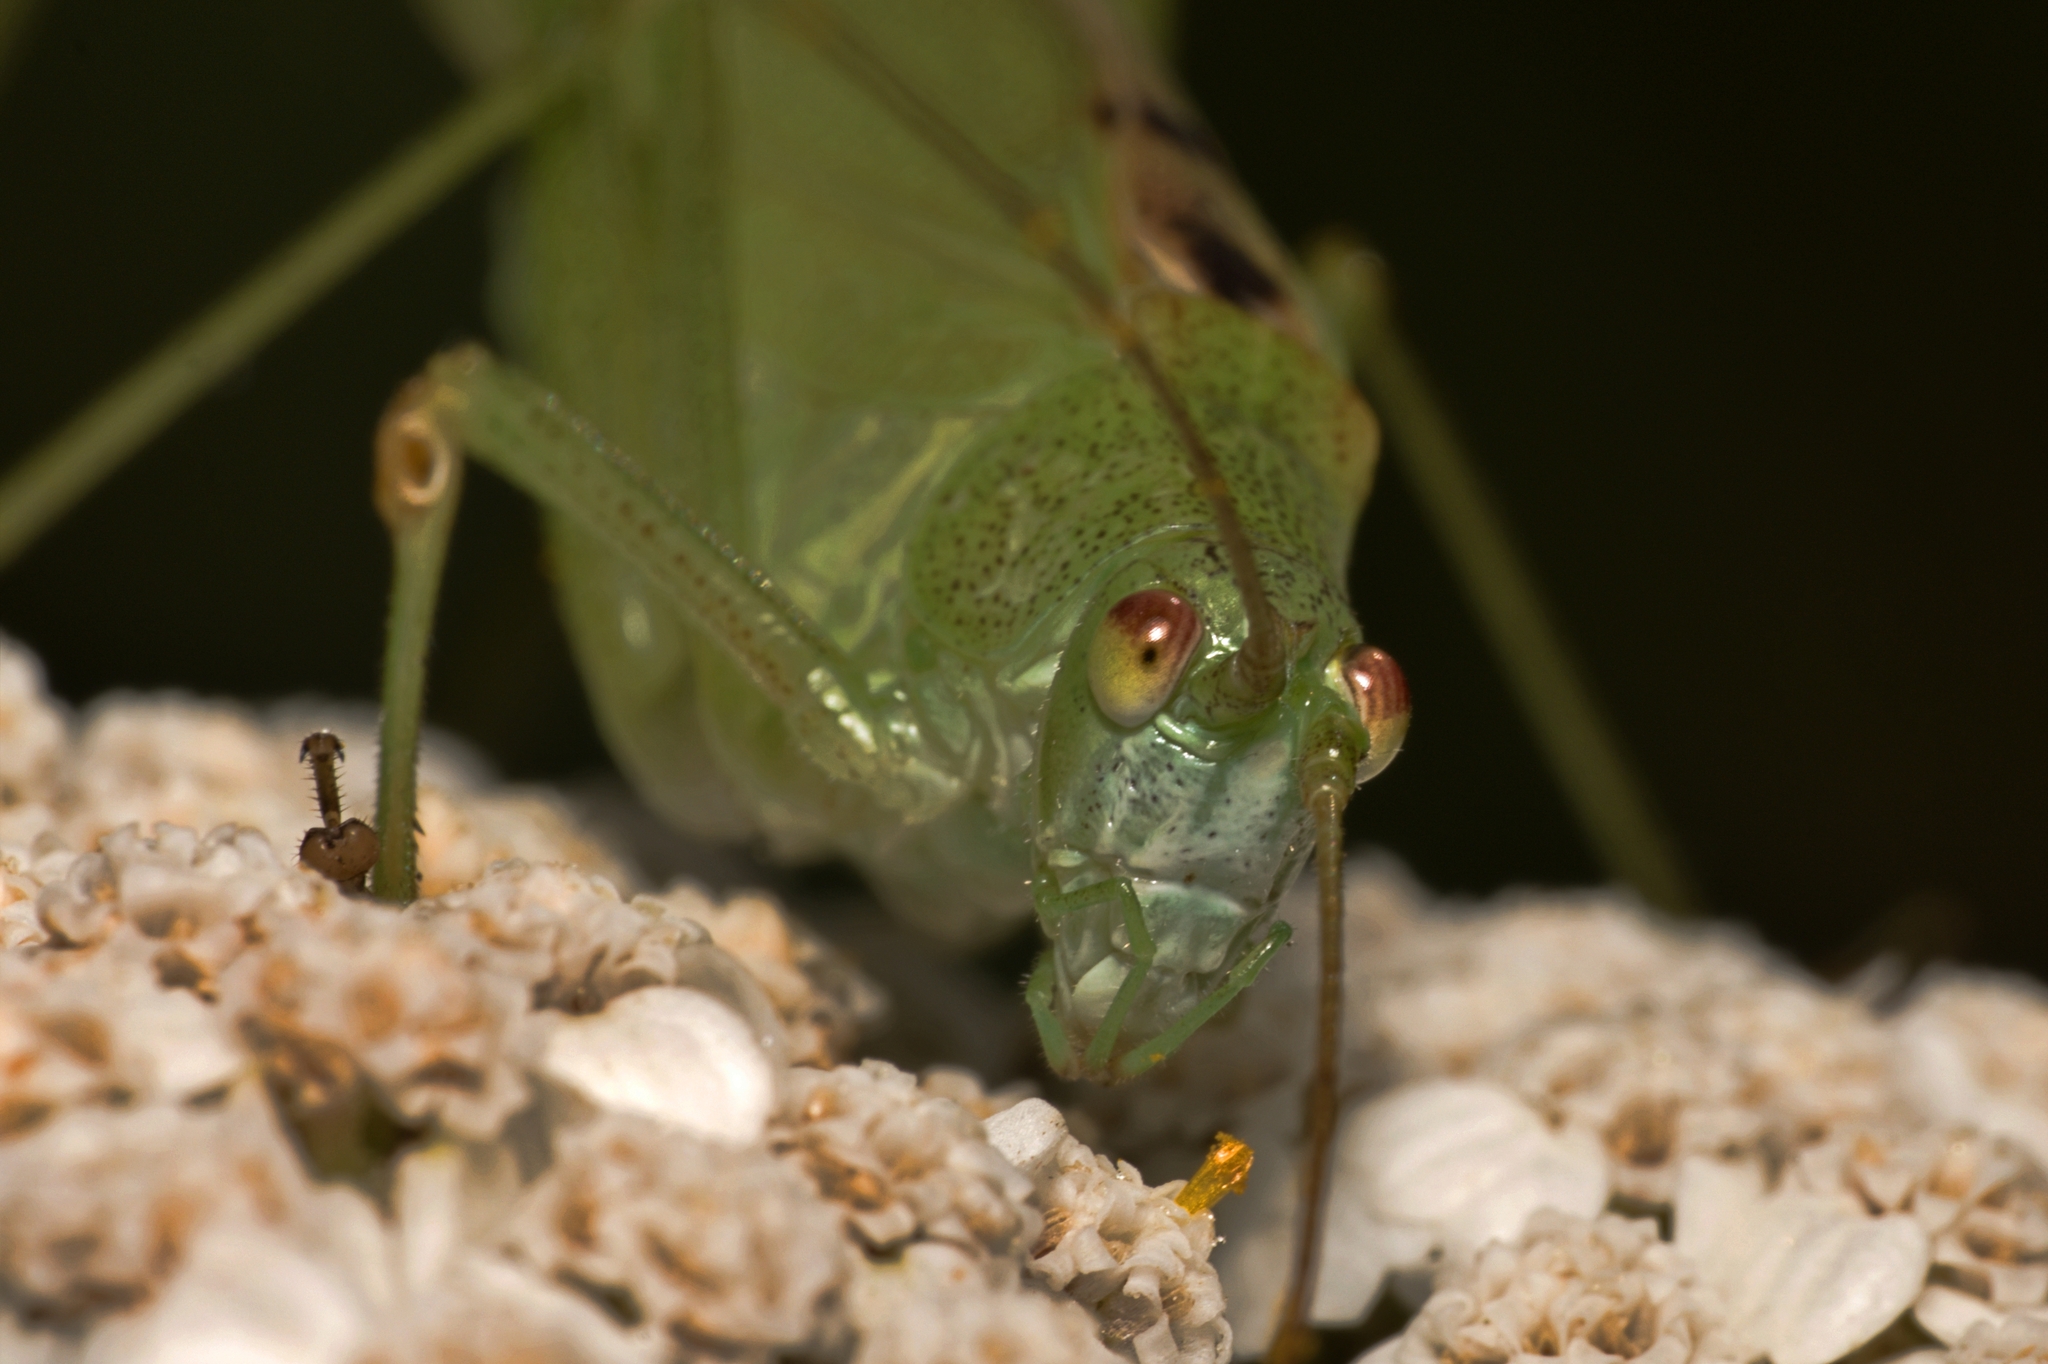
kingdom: Animalia
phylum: Arthropoda
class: Insecta
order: Orthoptera
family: Tettigoniidae
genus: Phaneroptera
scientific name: Phaneroptera falcata
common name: Sickle-bearing bush-cricket
